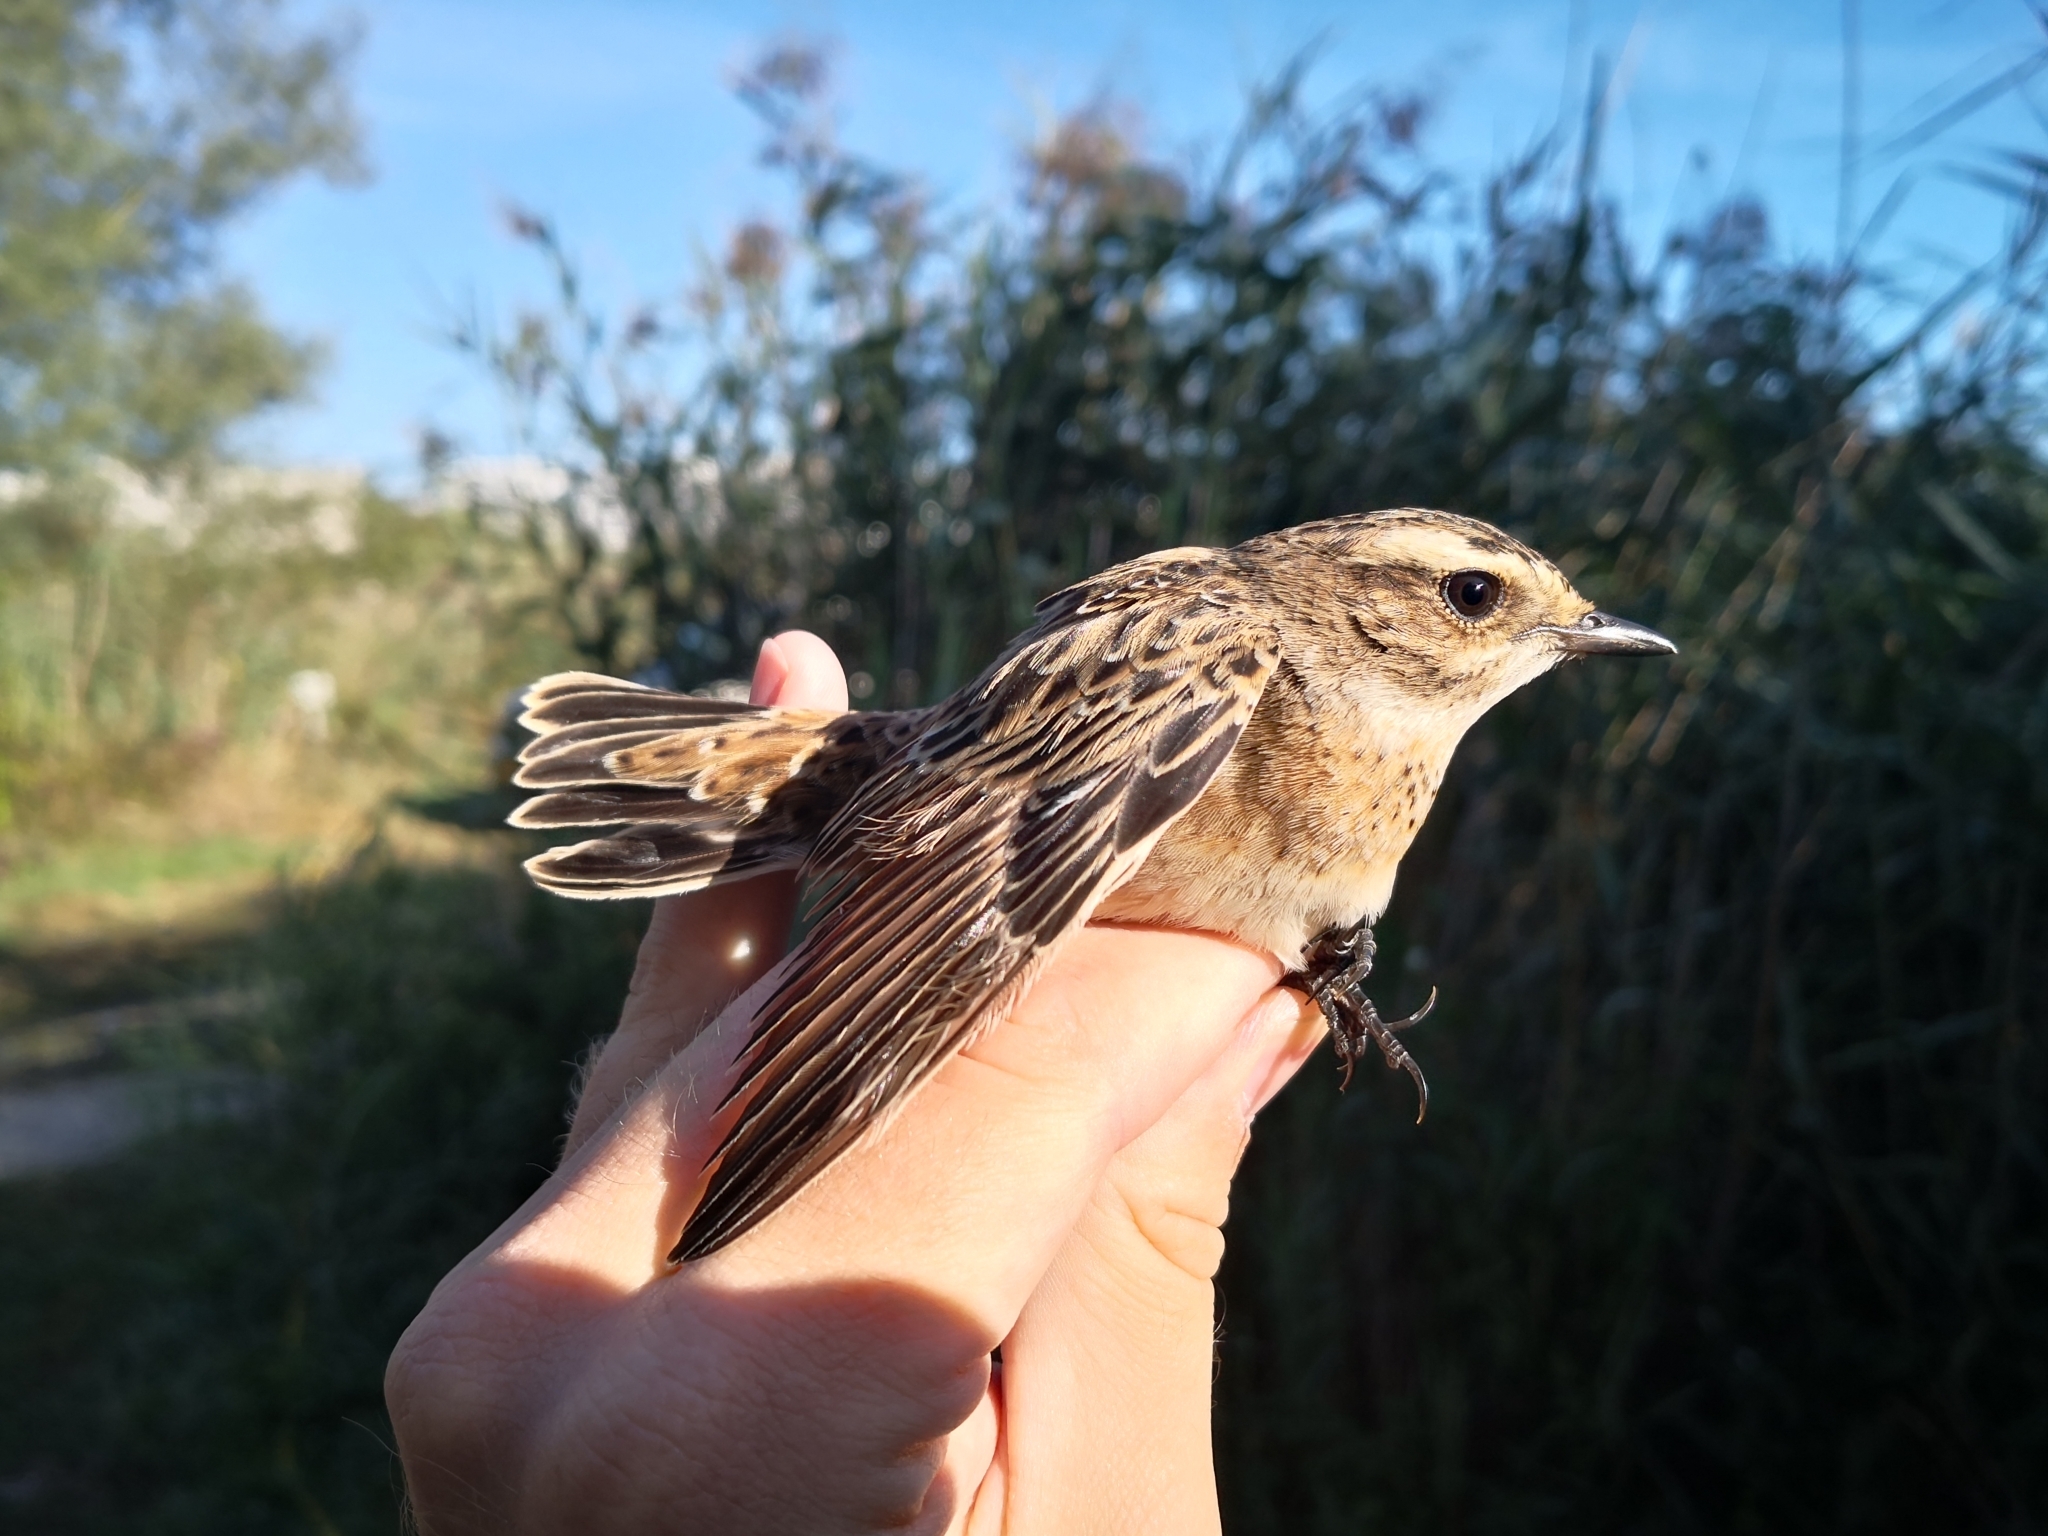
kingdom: Animalia
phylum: Chordata
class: Aves
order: Passeriformes
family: Muscicapidae
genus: Saxicola
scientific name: Saxicola rubetra
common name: Whinchat
